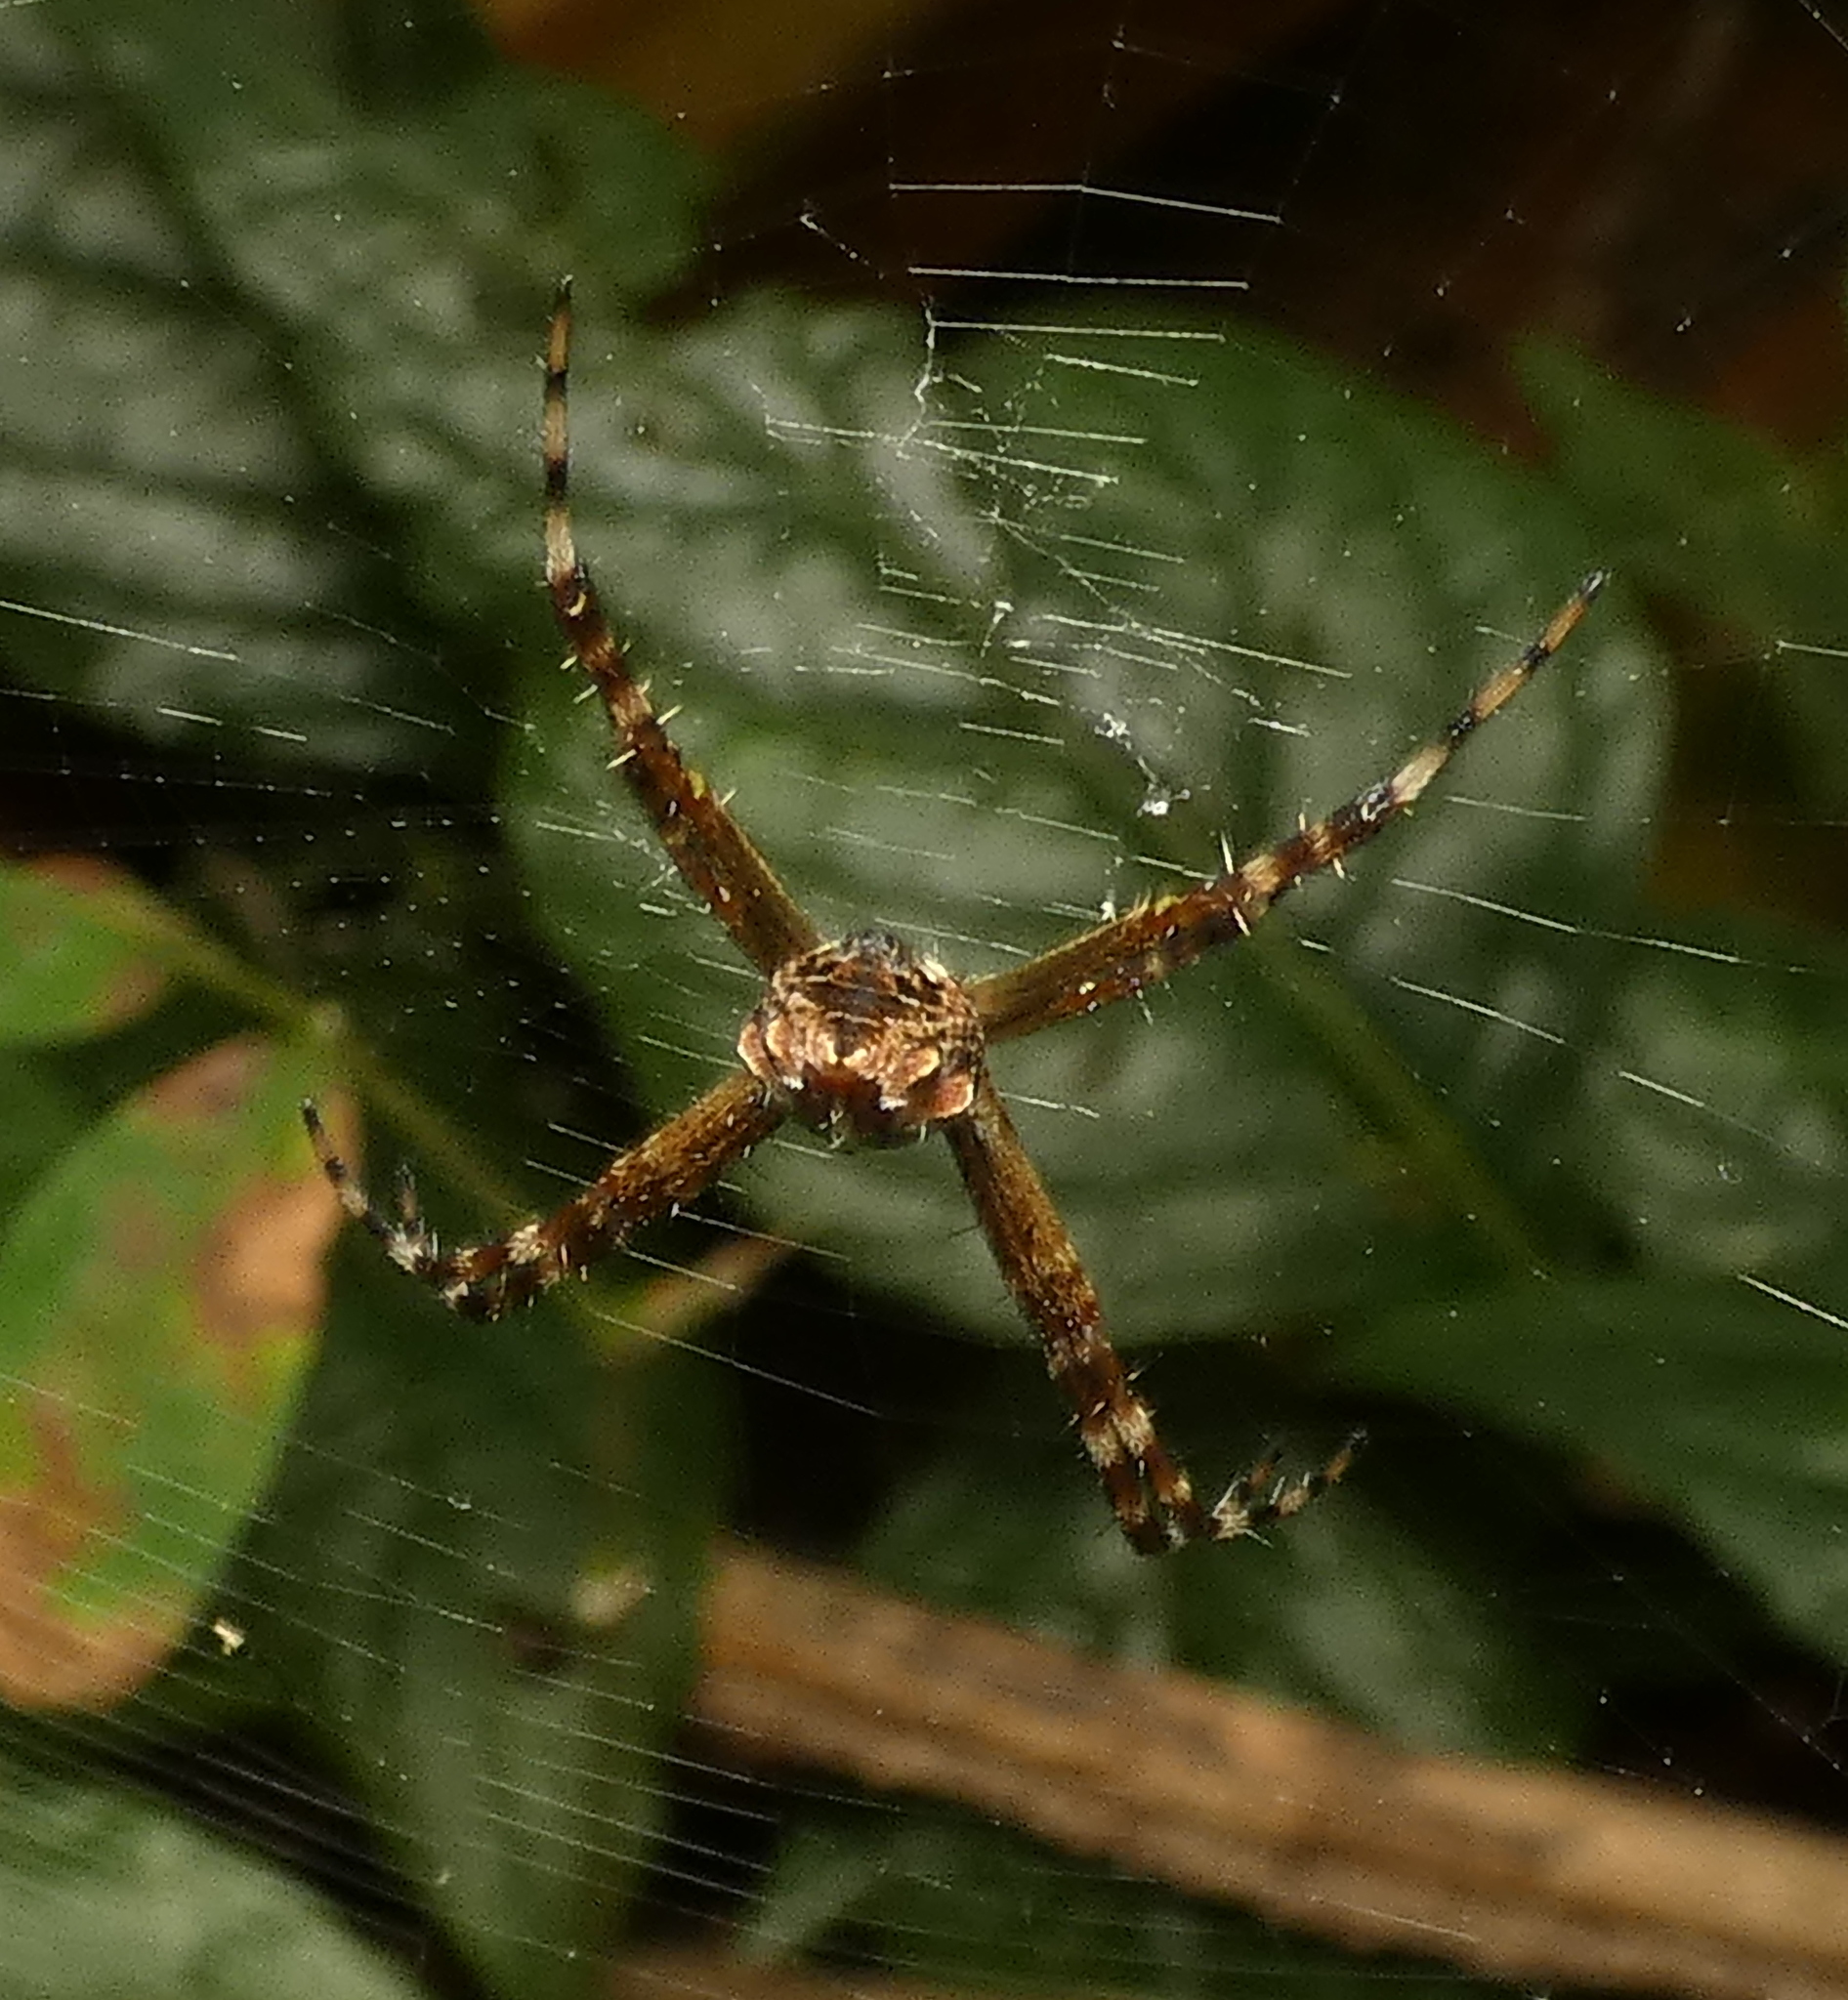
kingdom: Animalia
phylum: Arthropoda
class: Arachnida
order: Araneae
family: Araneidae
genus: Argiope
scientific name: Argiope argentata
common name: Orb weavers
